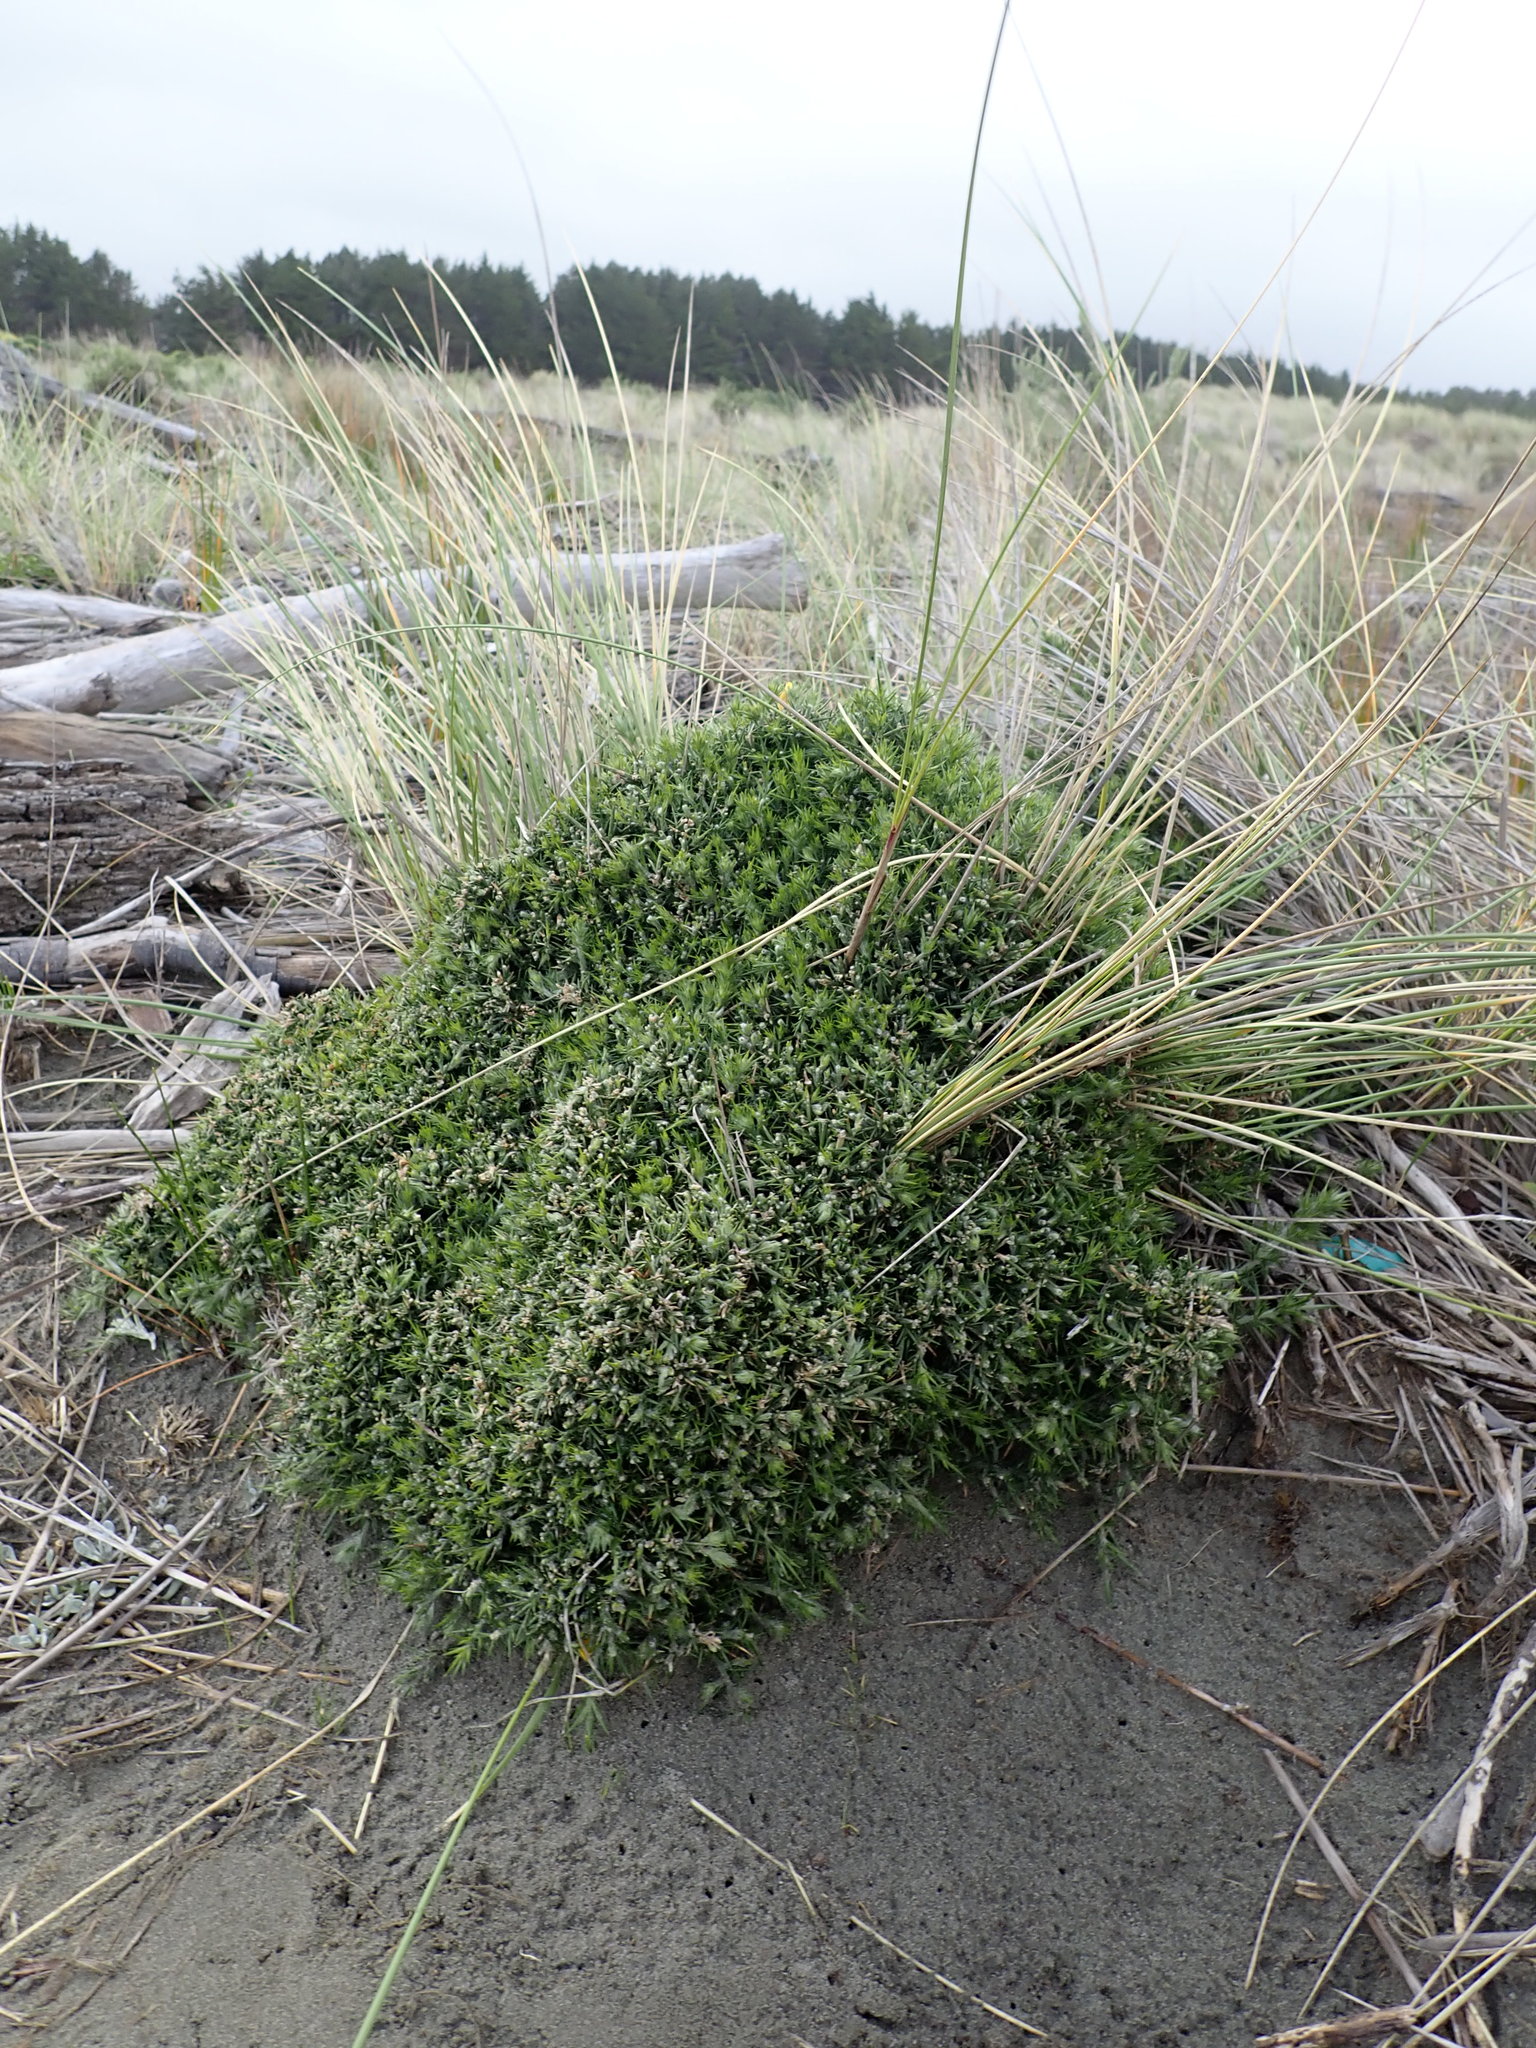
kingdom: Plantae
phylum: Tracheophyta
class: Magnoliopsida
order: Fabales
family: Fabaceae
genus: Ulex
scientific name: Ulex europaeus
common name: Common gorse
